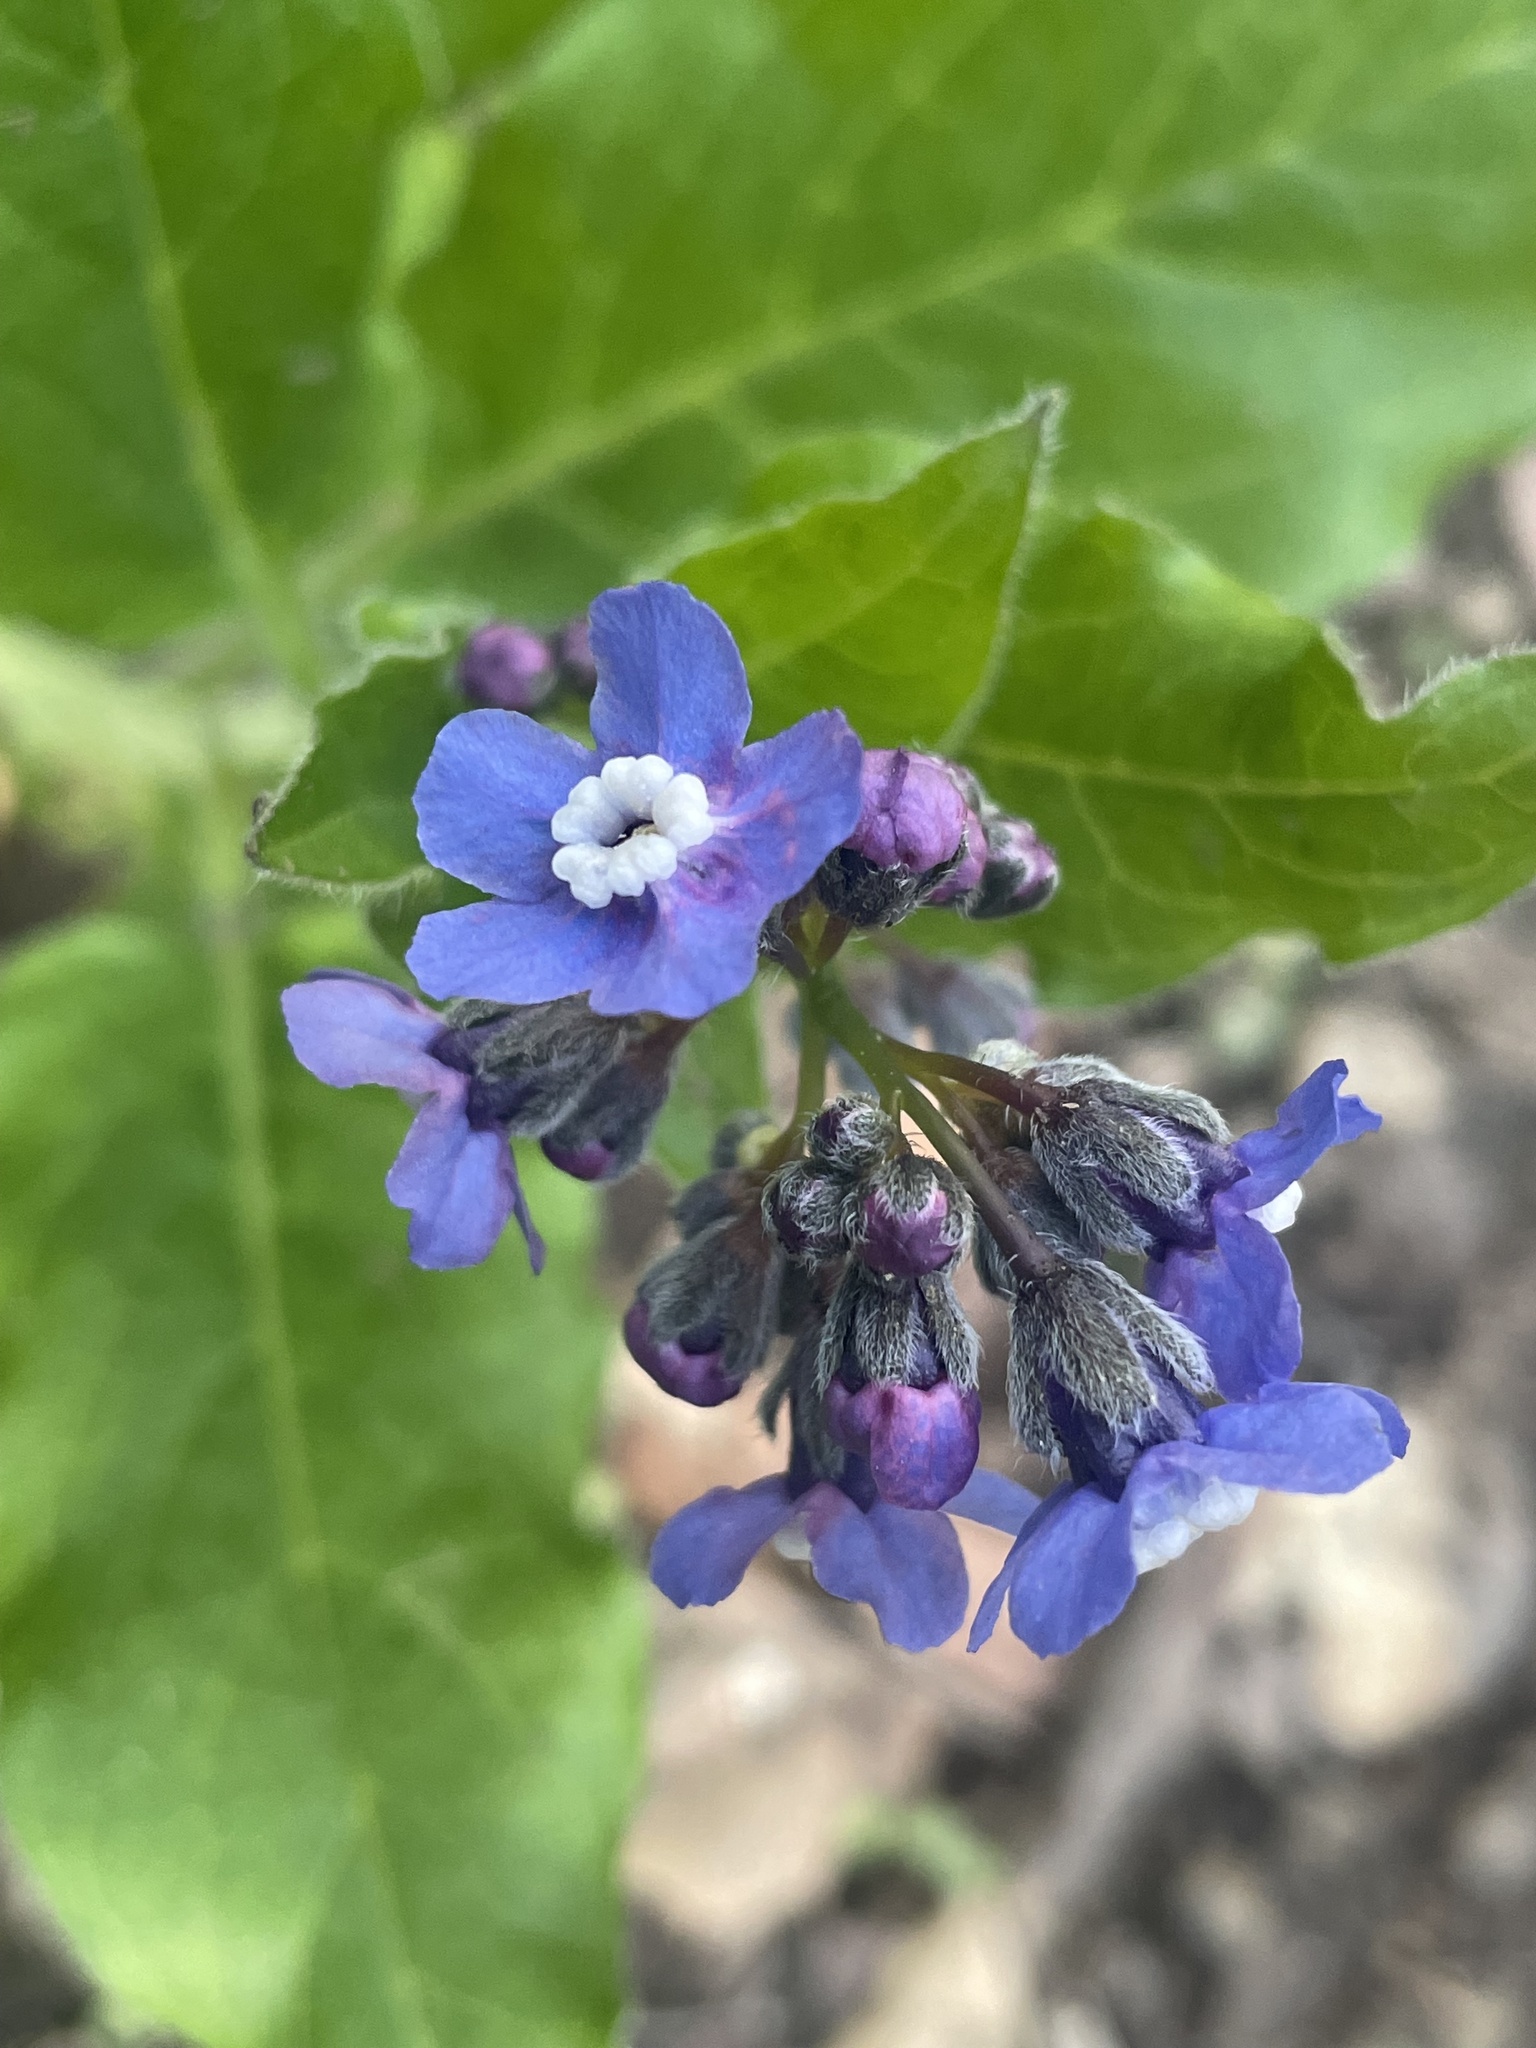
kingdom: Plantae
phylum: Tracheophyta
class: Magnoliopsida
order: Boraginales
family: Boraginaceae
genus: Adelinia
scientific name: Adelinia grande
